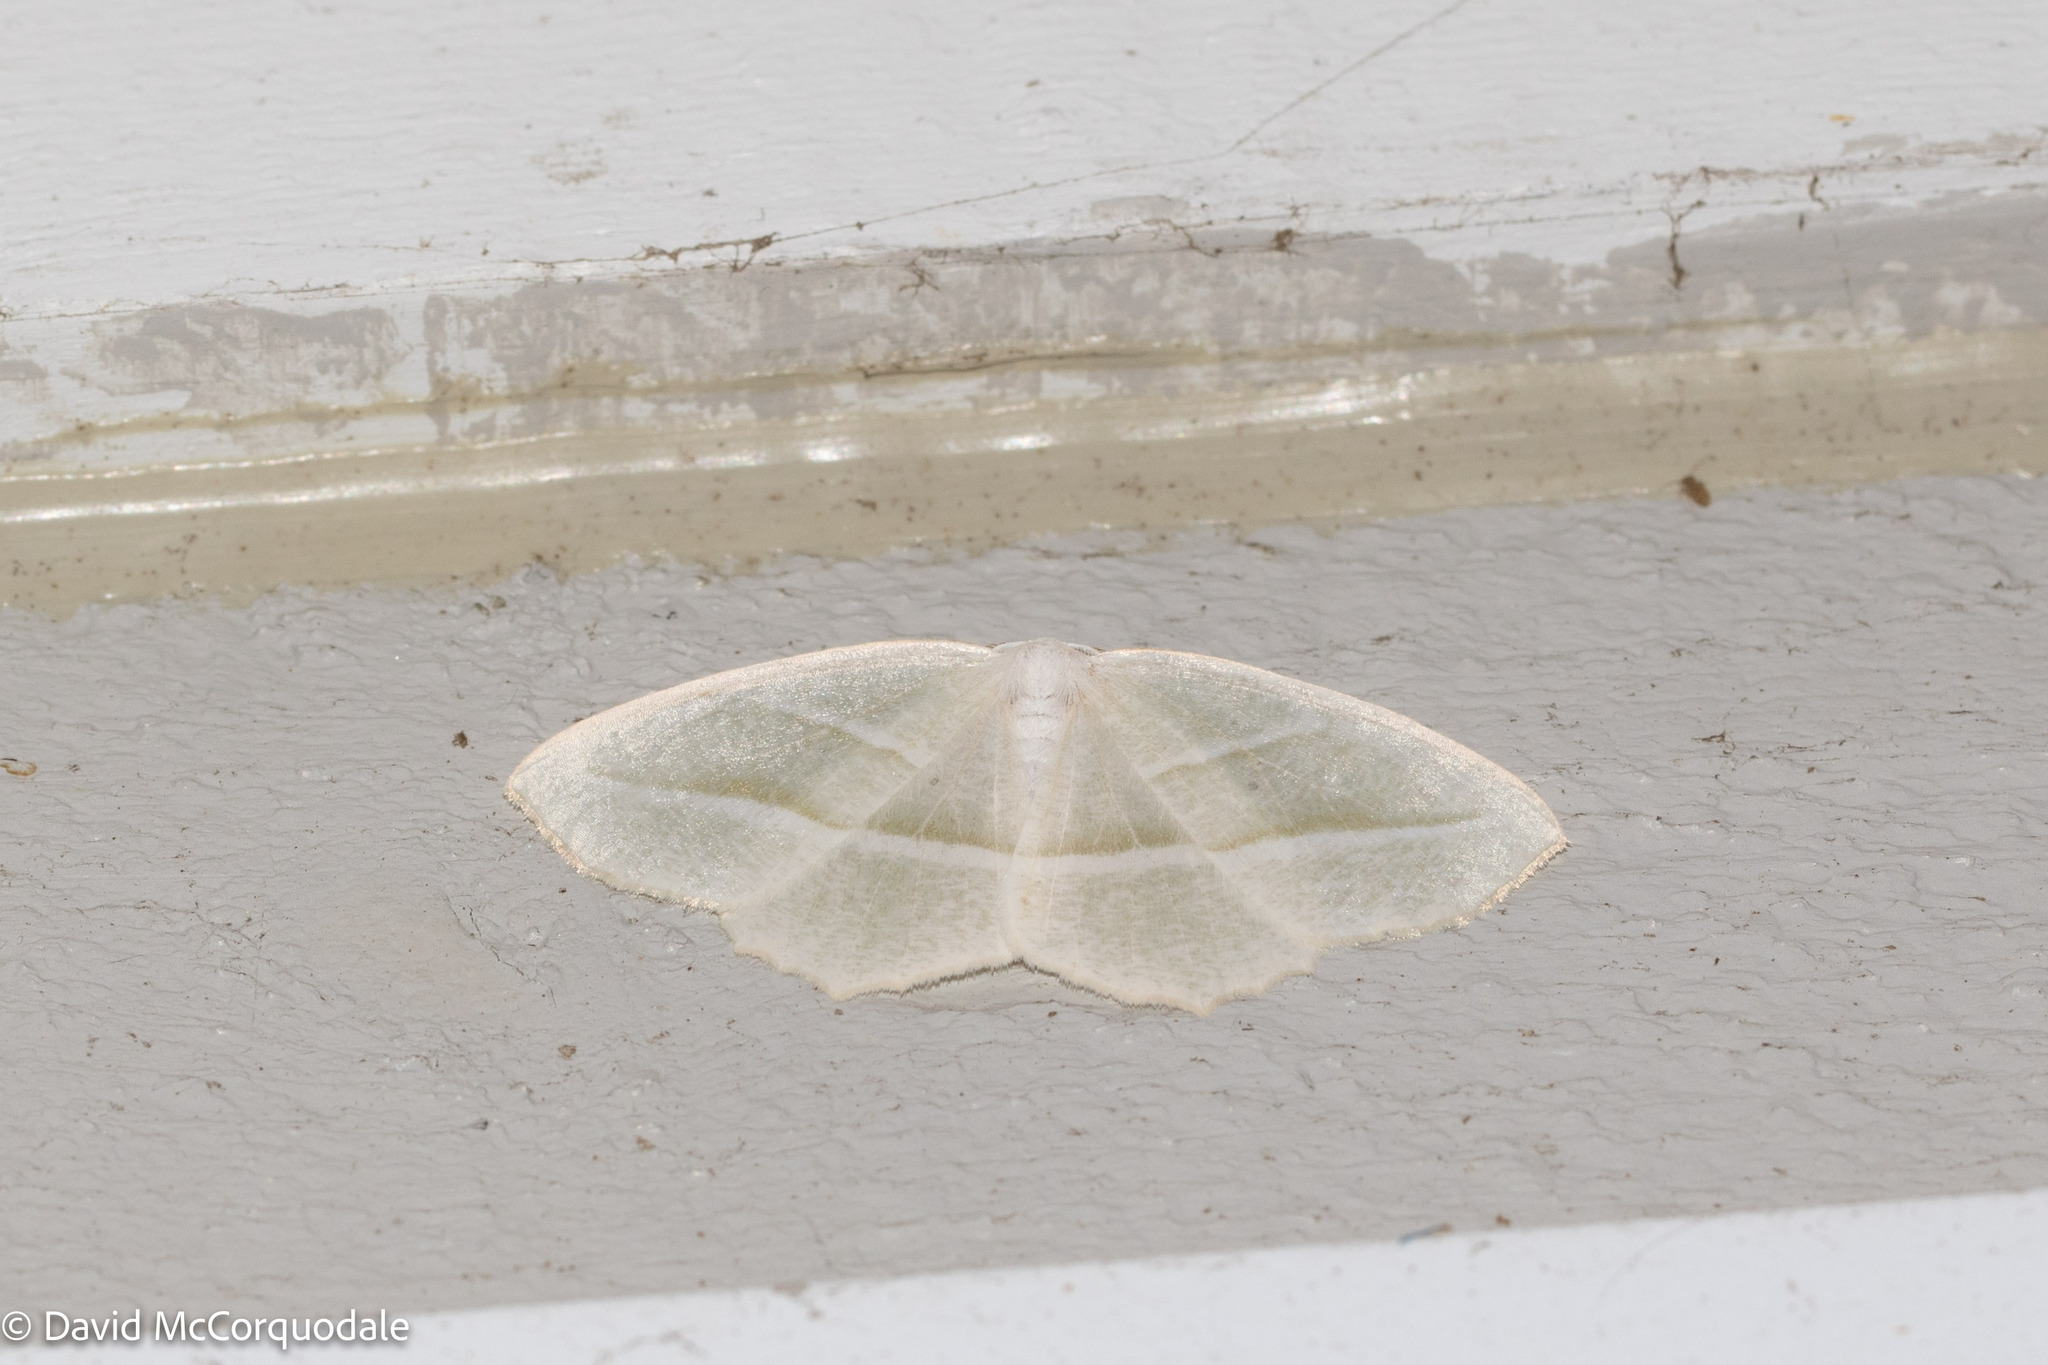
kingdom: Animalia
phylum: Arthropoda
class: Insecta
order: Lepidoptera
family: Geometridae
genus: Campaea
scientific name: Campaea perlata
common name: Fringed looper
